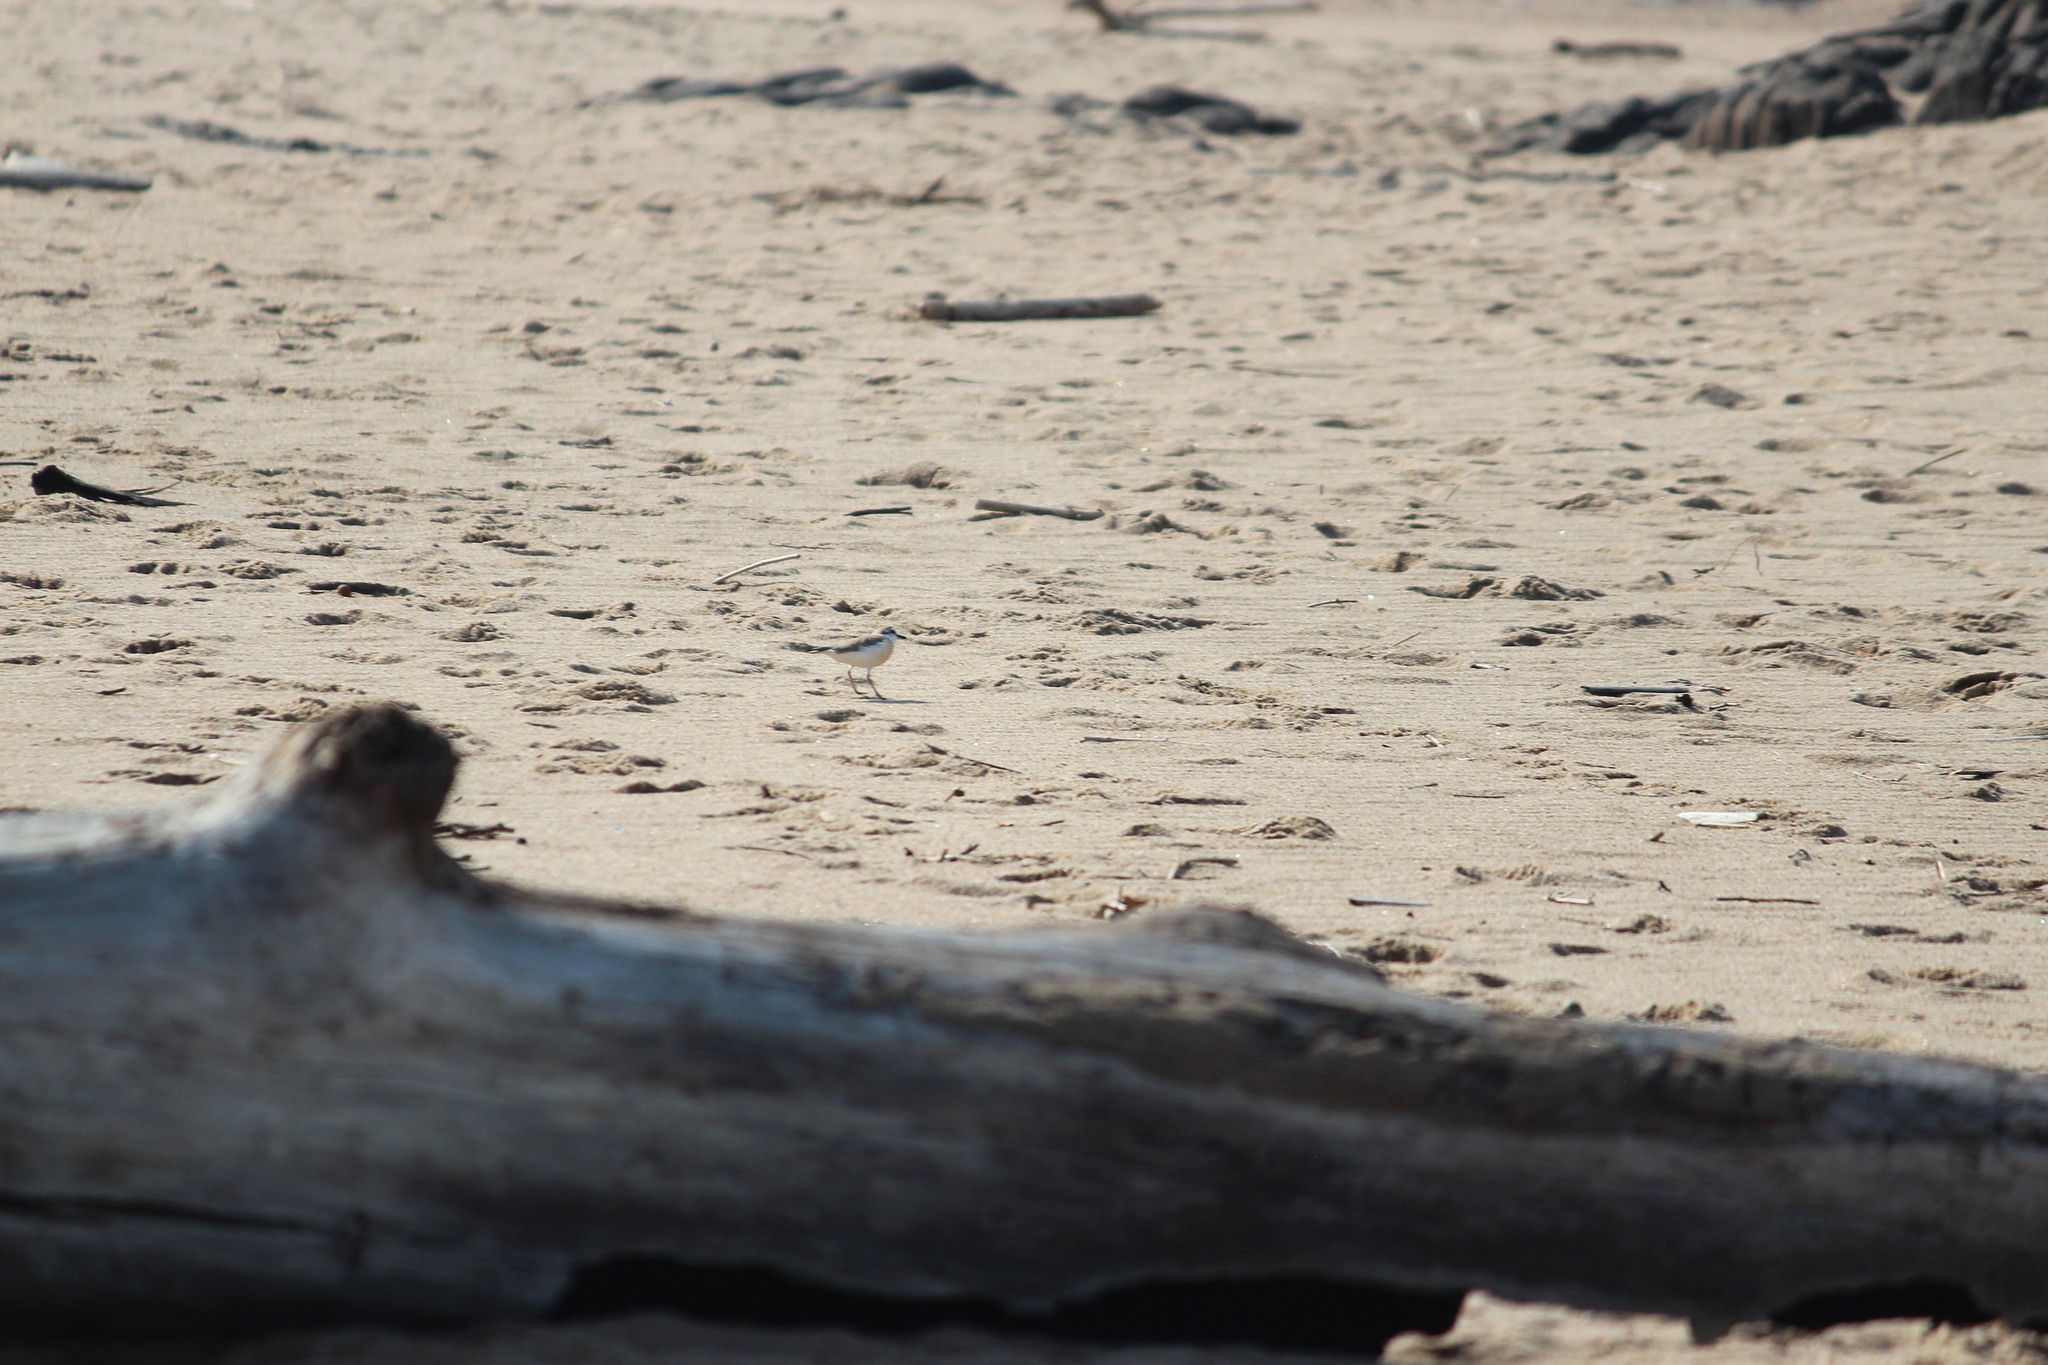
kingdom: Animalia
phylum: Chordata
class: Aves
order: Charadriiformes
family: Charadriidae
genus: Anarhynchus
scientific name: Anarhynchus
